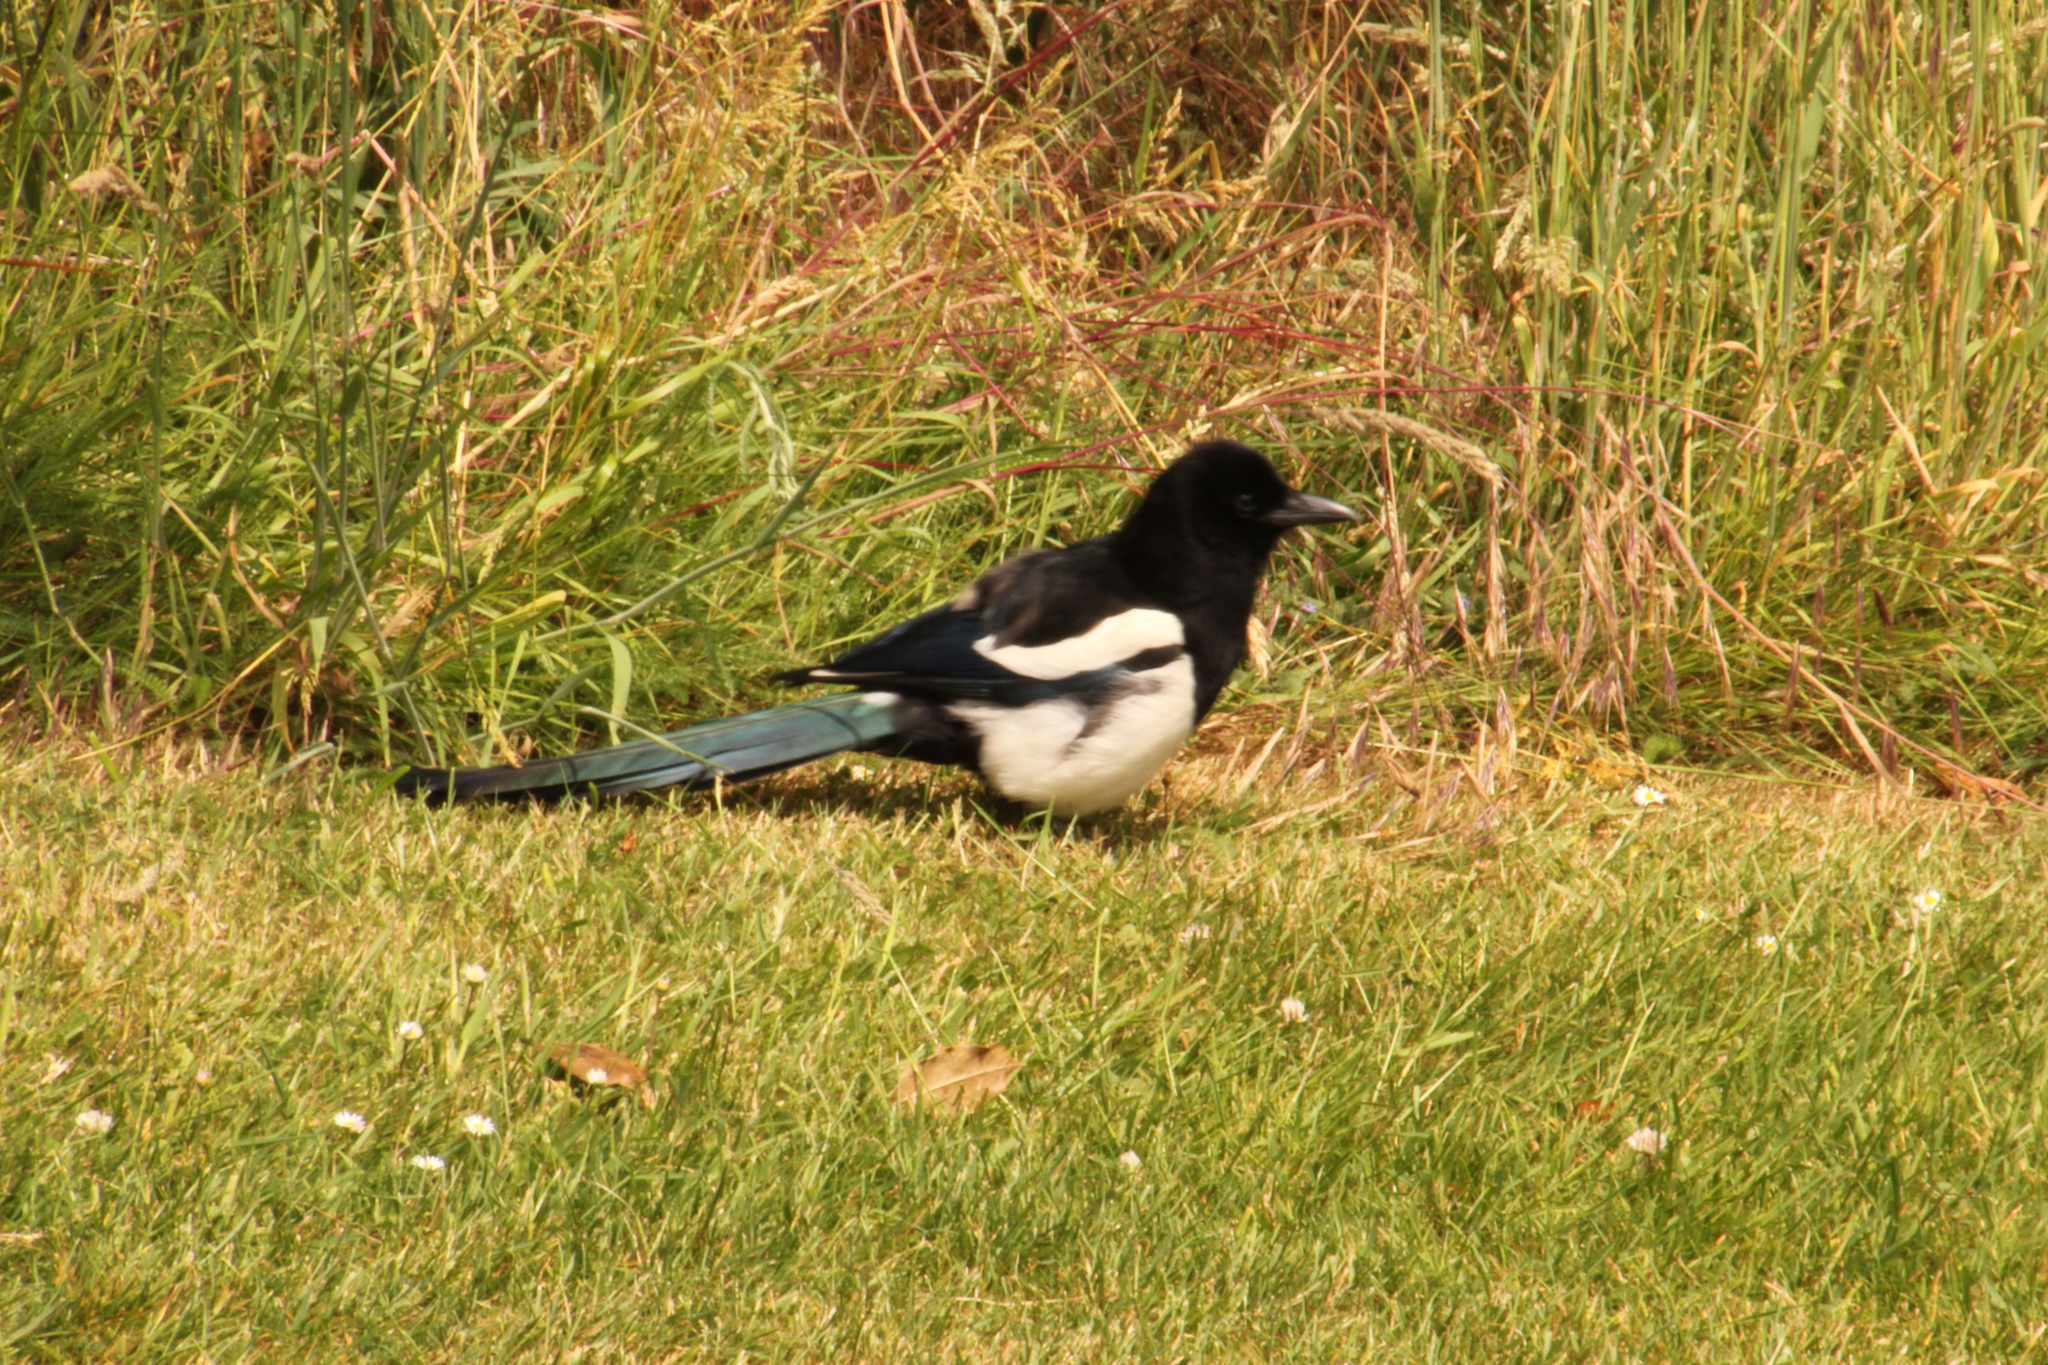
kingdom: Animalia
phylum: Chordata
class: Aves
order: Passeriformes
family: Corvidae
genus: Pica
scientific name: Pica pica
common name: Eurasian magpie
